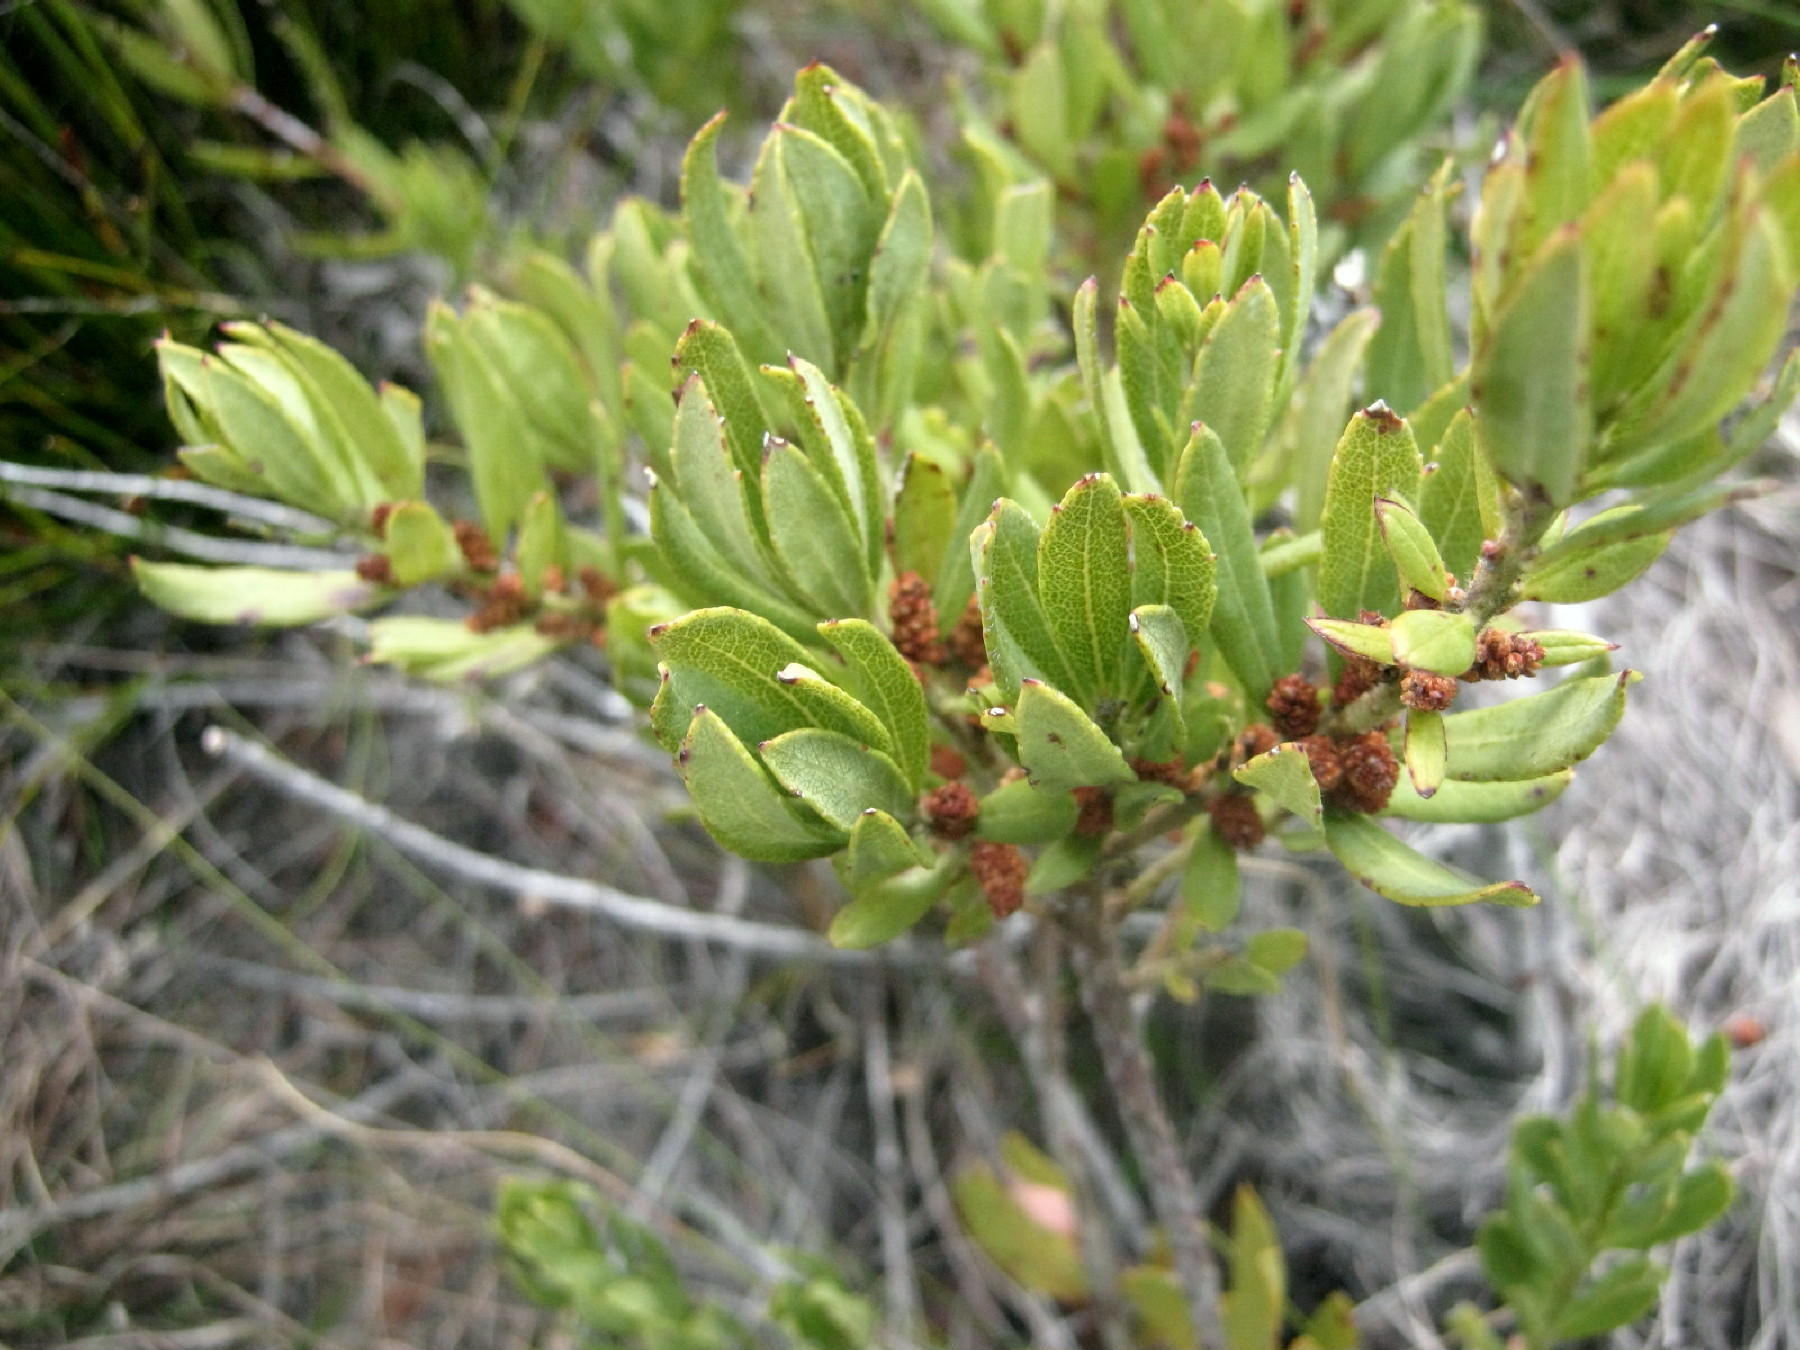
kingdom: Plantae
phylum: Tracheophyta
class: Magnoliopsida
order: Fagales
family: Myricaceae
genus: Morella
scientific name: Morella humilis
